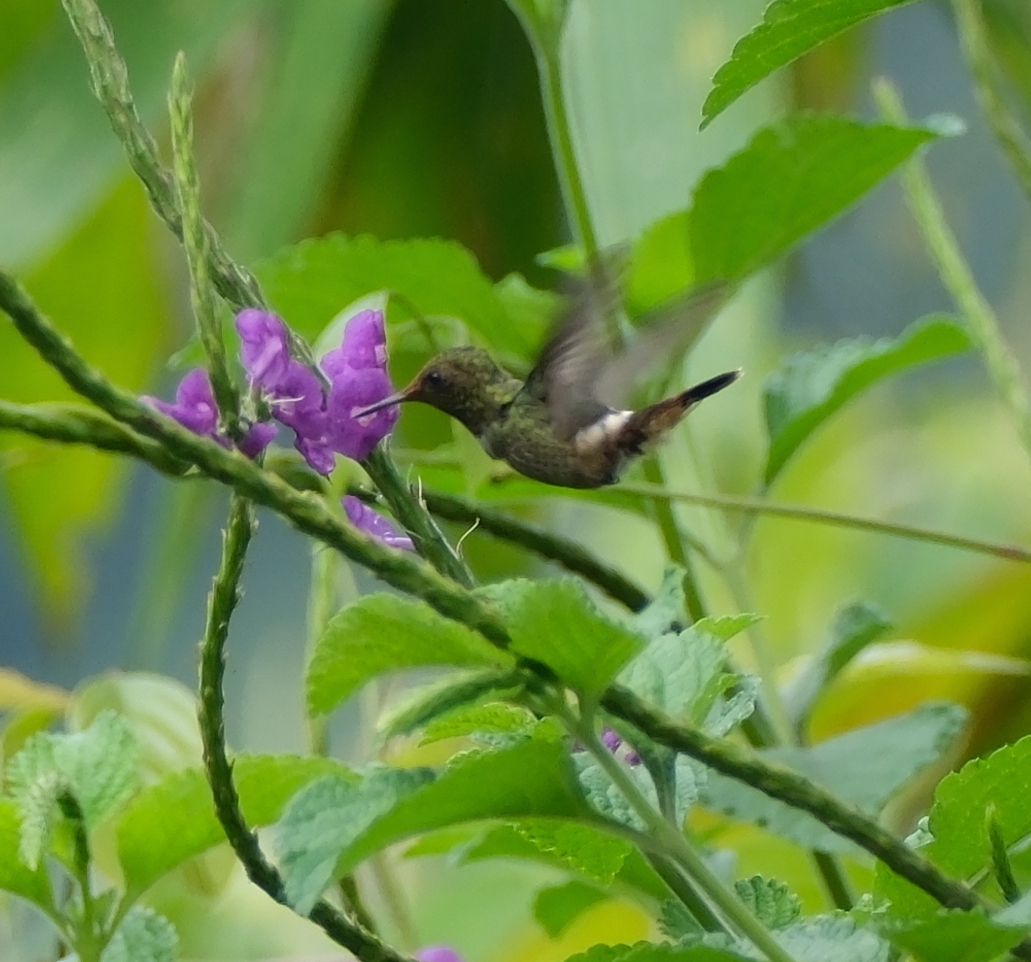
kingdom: Animalia
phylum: Chordata
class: Aves
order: Apodiformes
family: Trochilidae
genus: Discosura
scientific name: Discosura popelairii
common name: Wire-crested thorntail
